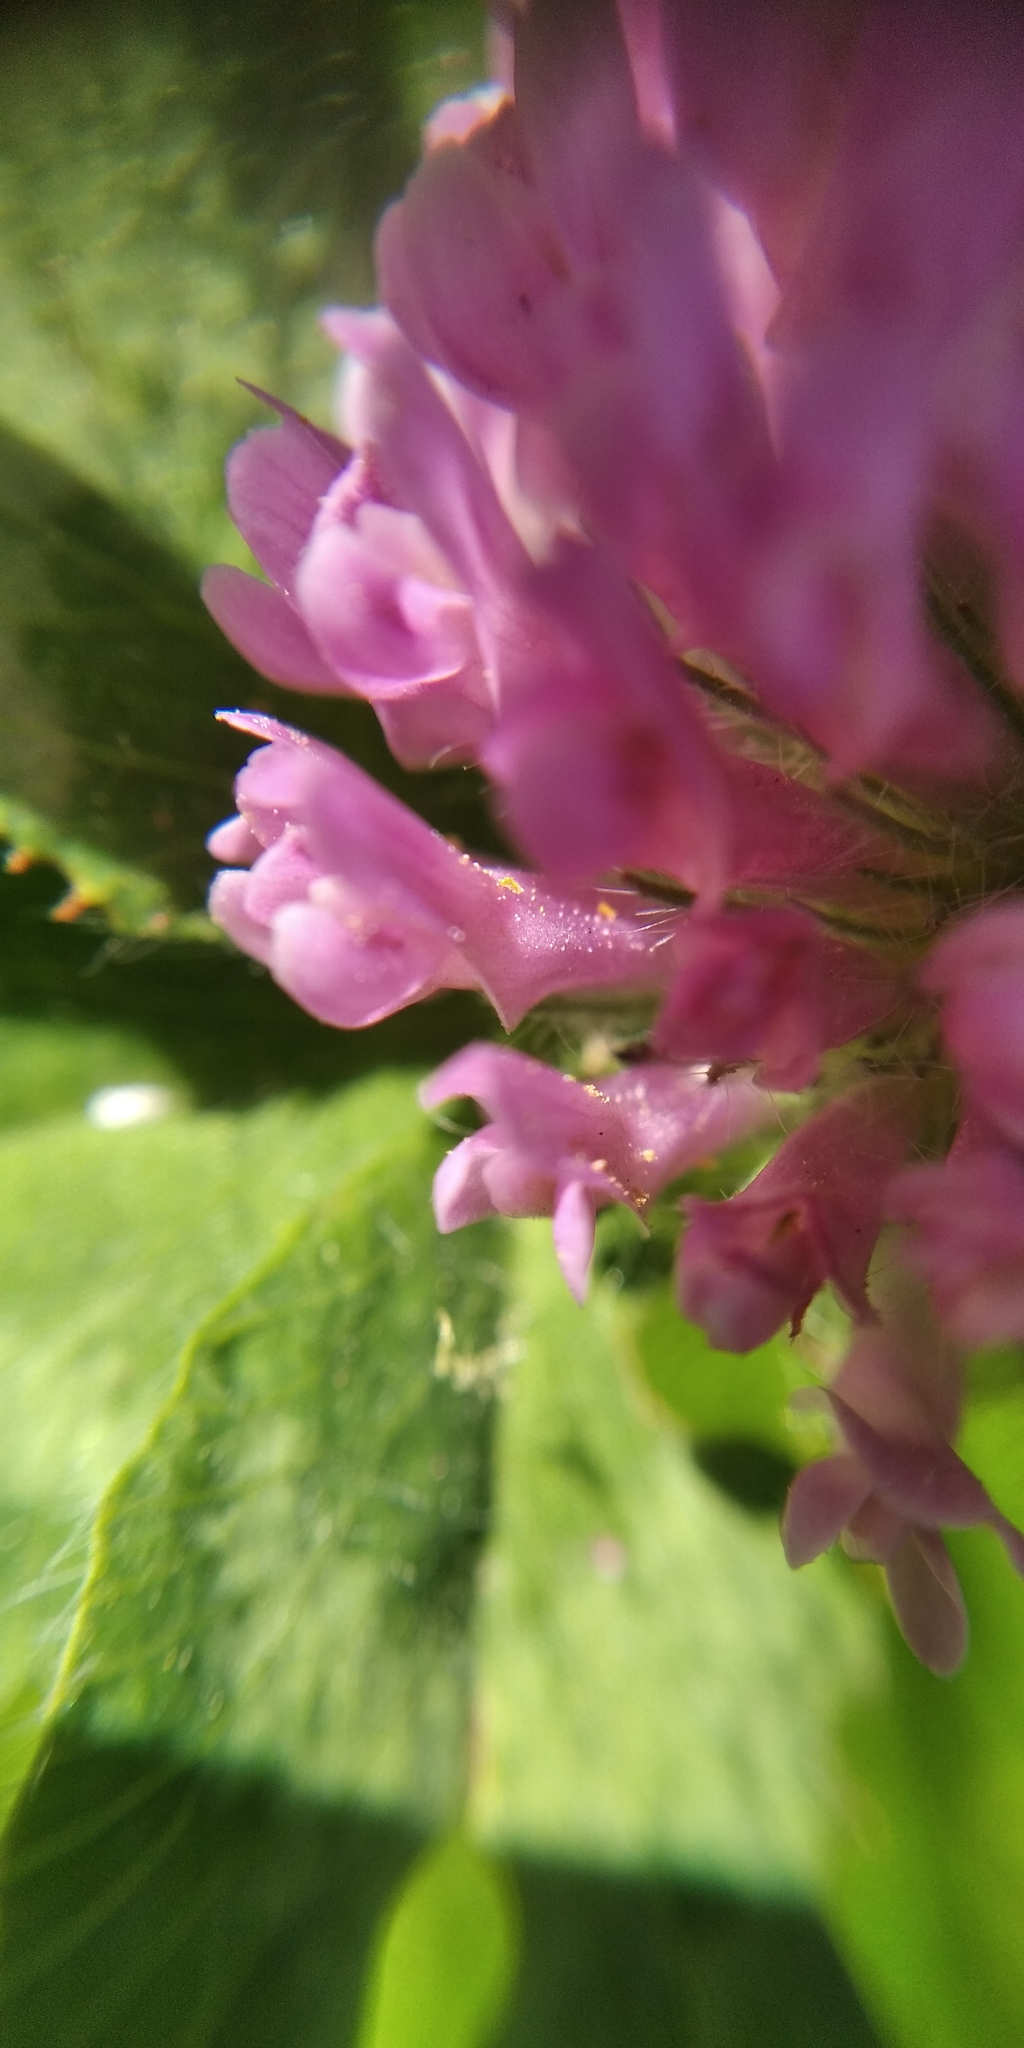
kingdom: Plantae
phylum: Tracheophyta
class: Magnoliopsida
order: Fabales
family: Fabaceae
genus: Trifolium
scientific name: Trifolium pratense
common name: Red clover
